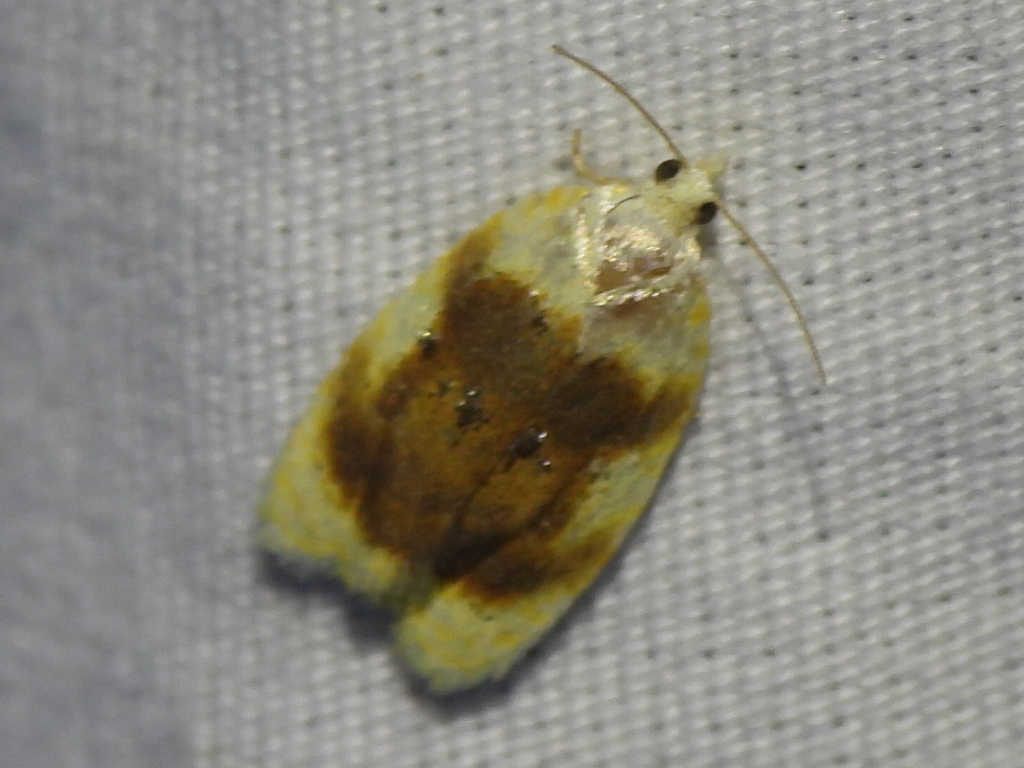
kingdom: Animalia
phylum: Arthropoda
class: Insecta
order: Lepidoptera
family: Tortricidae
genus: Acleris
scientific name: Acleris semipurpurana
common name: Oak leaftier moth
